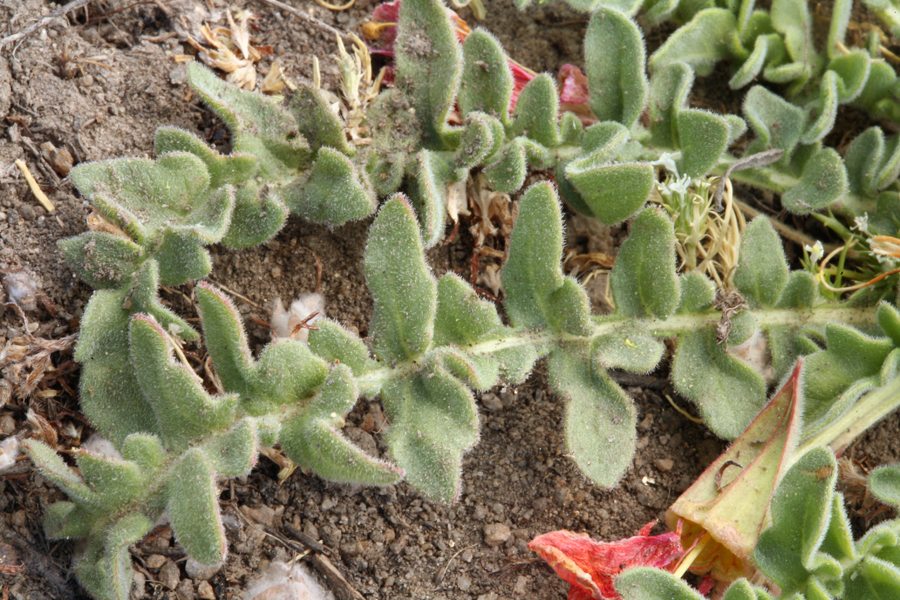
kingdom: Plantae
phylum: Tracheophyta
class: Magnoliopsida
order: Myrtales
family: Onagraceae
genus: Taraxia
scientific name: Taraxia tanacetifolia
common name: Tansyleaf evening primrose
